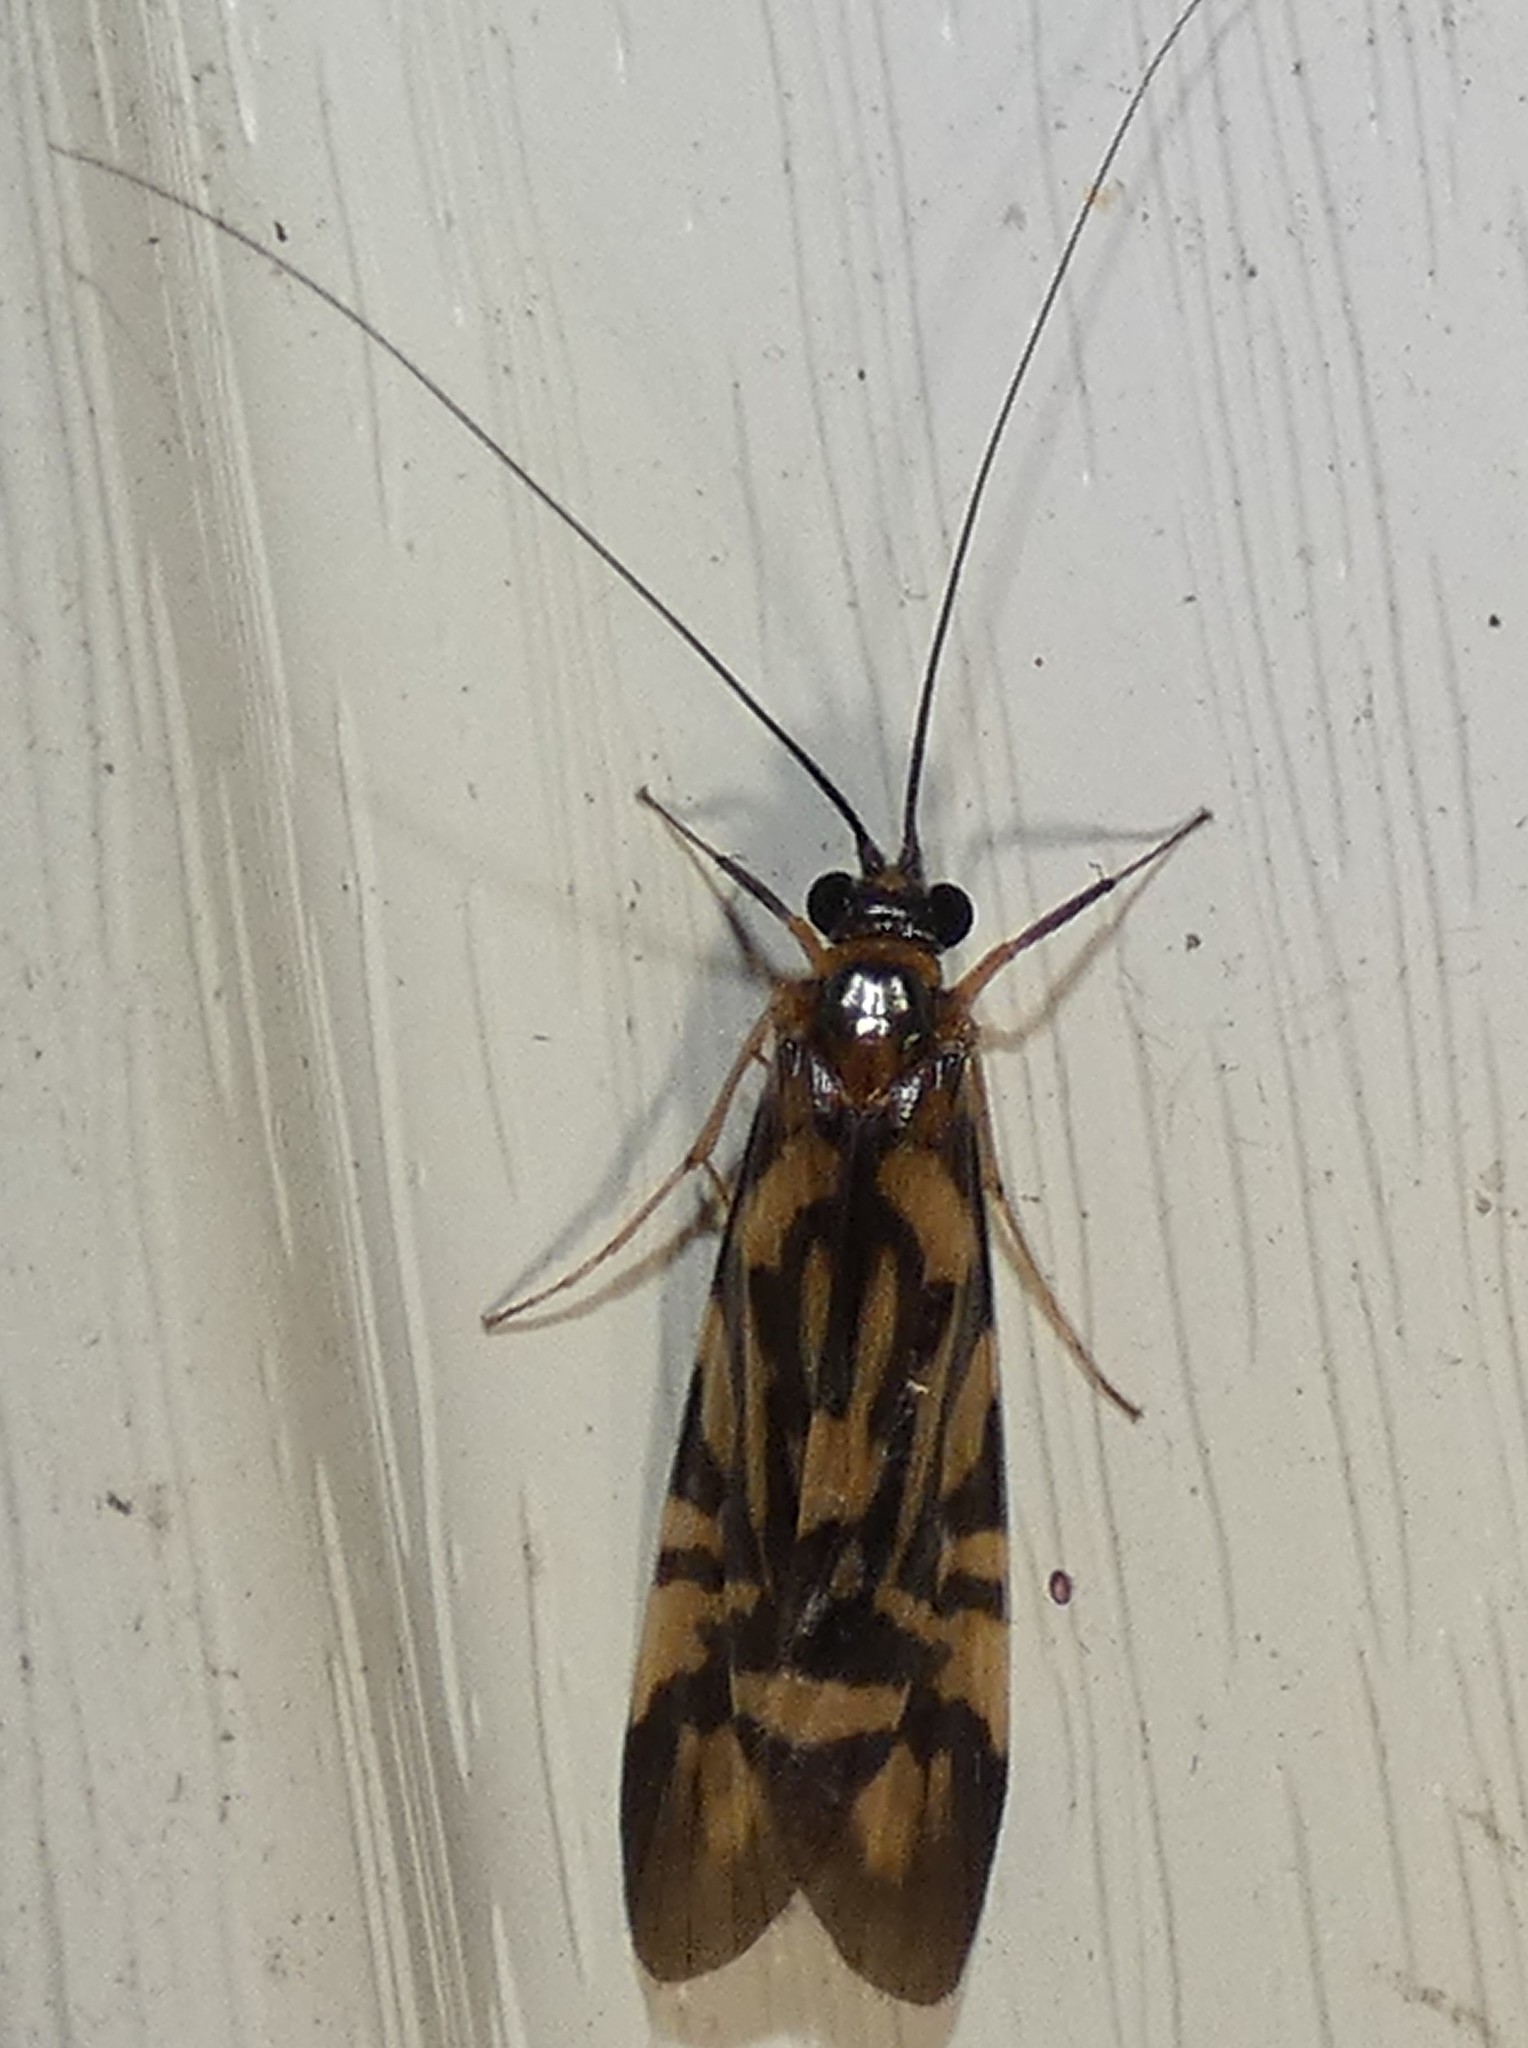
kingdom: Animalia
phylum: Arthropoda
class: Insecta
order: Trichoptera
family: Hydropsychidae
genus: Macrostemum
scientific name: Macrostemum carolina
